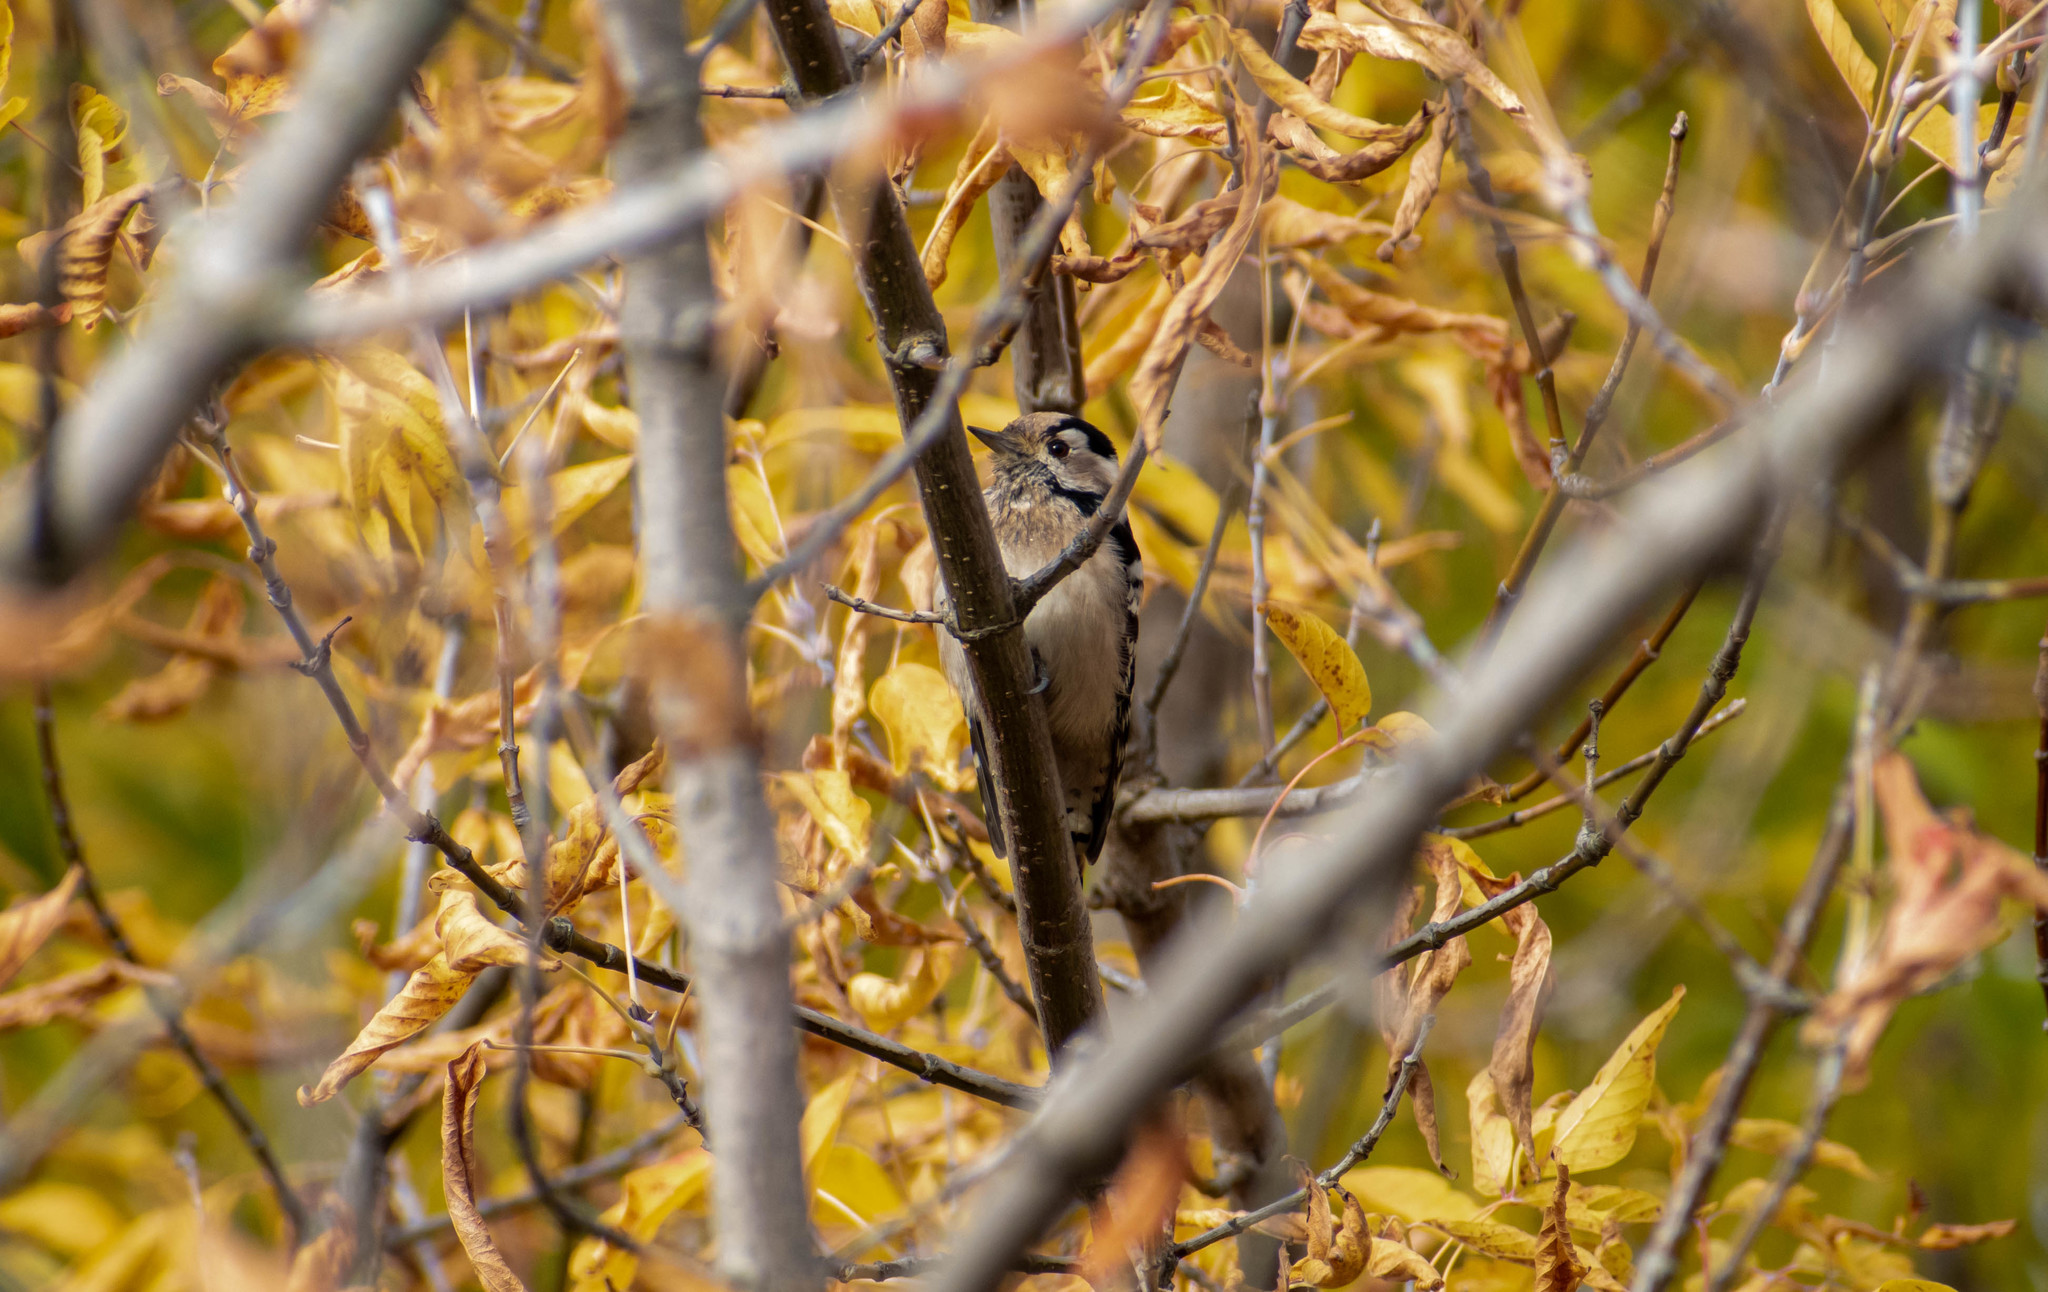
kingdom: Animalia
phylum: Chordata
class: Aves
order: Piciformes
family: Picidae
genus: Dryobates
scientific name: Dryobates minor
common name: Lesser spotted woodpecker
